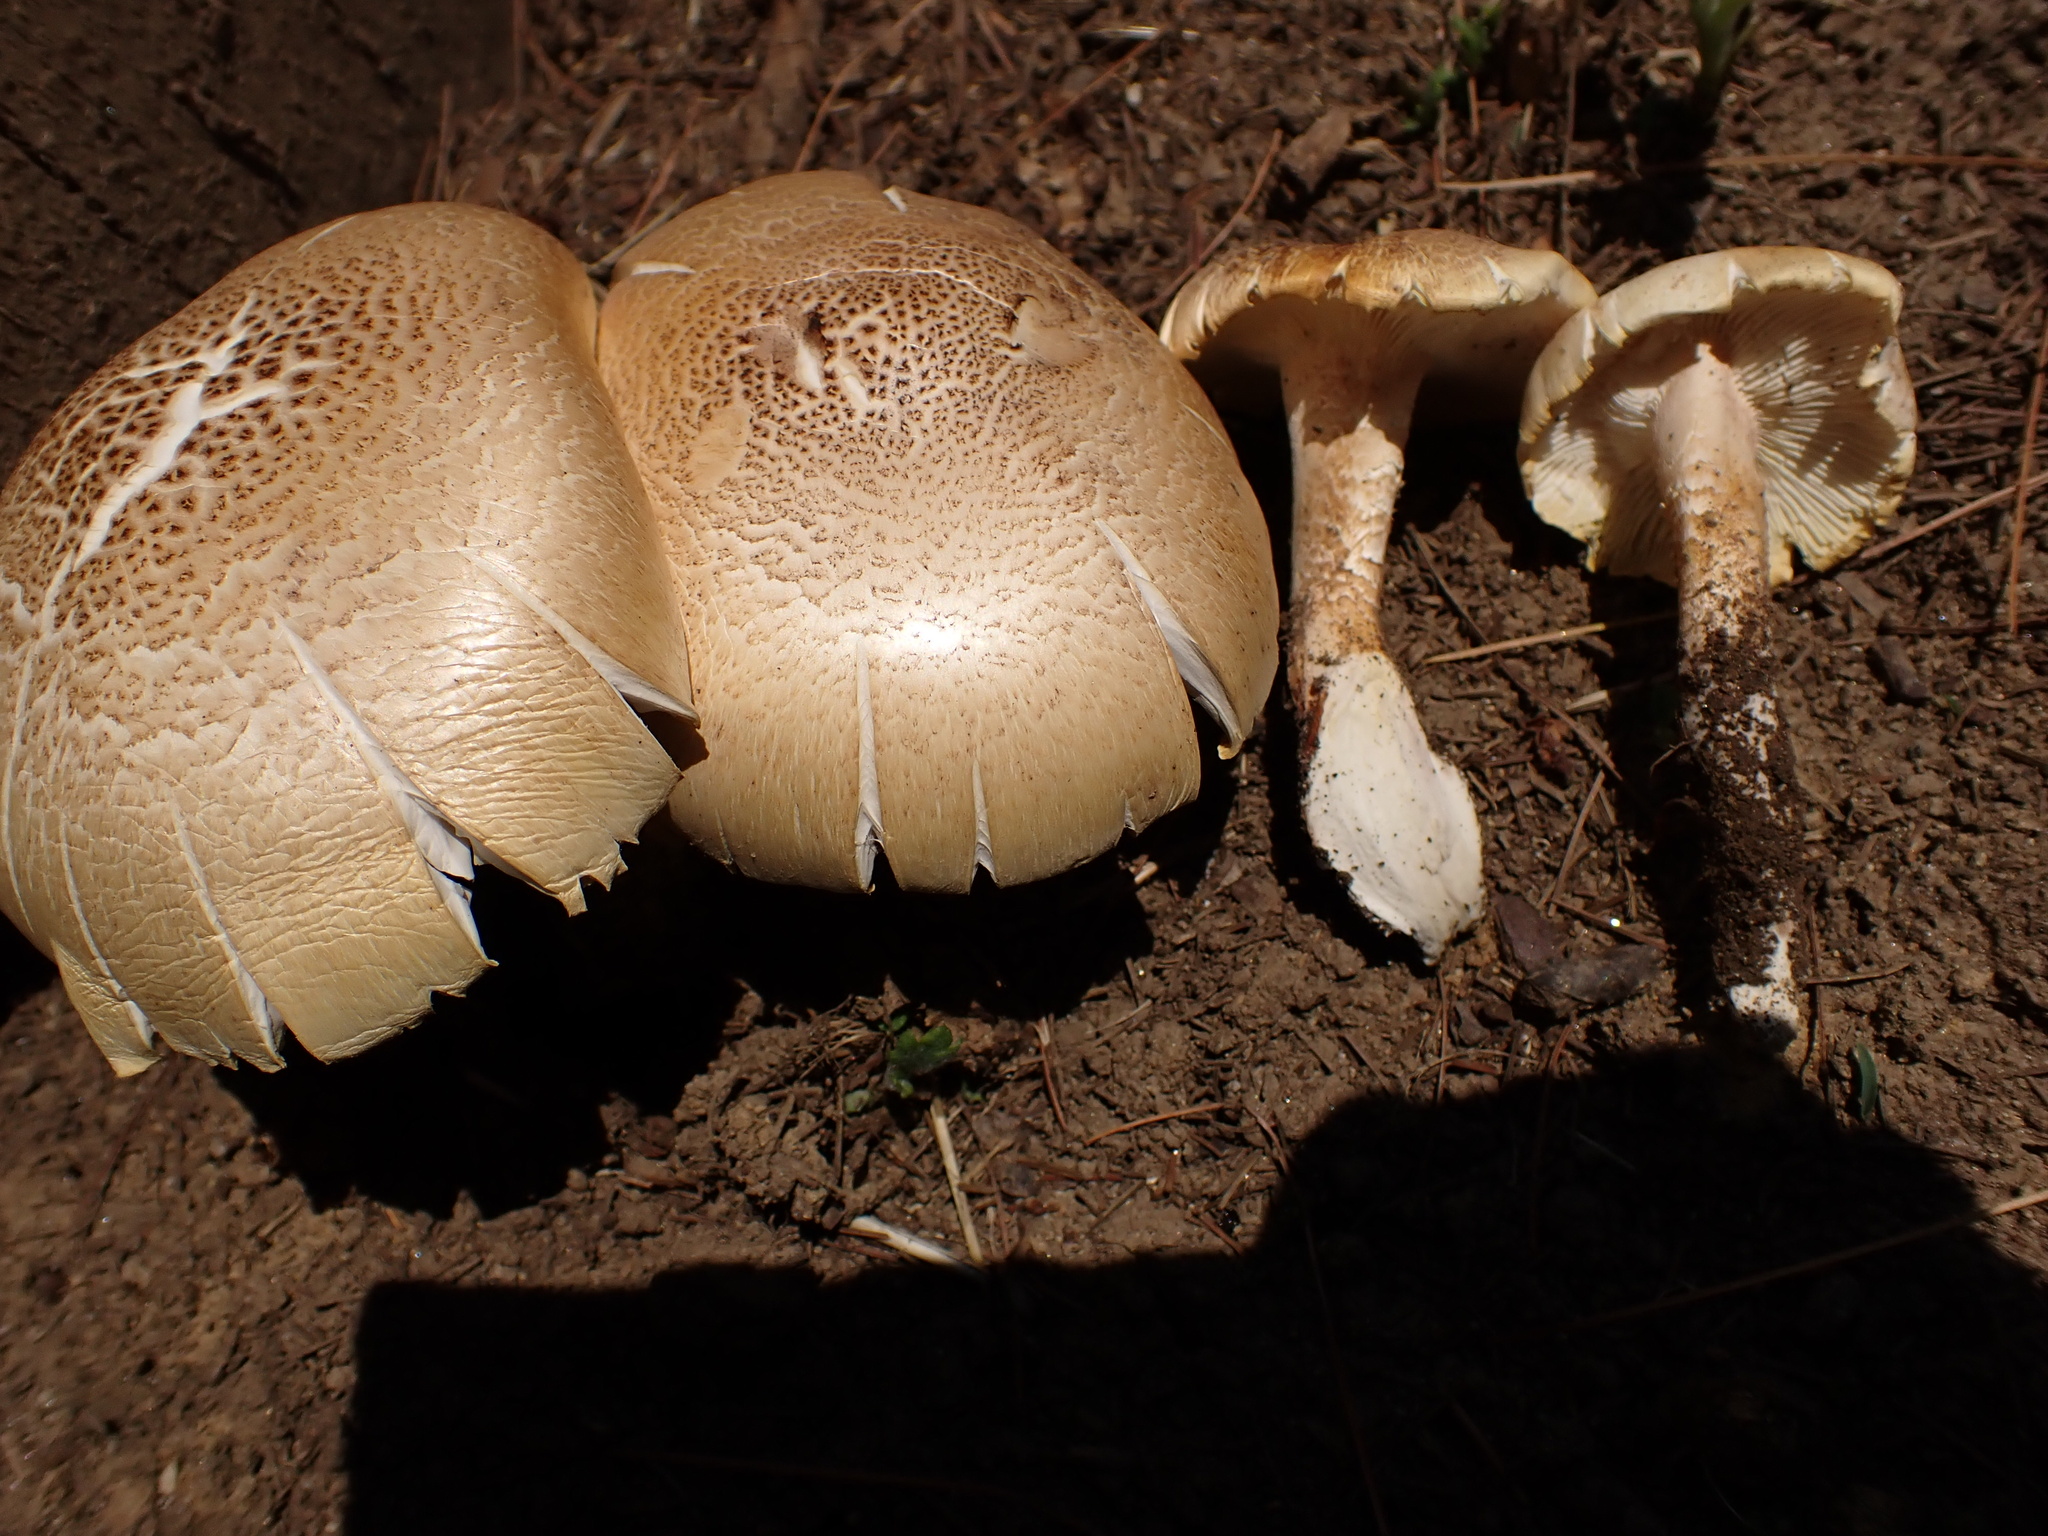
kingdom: Fungi
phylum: Basidiomycota
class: Agaricomycetes
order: Gloeophyllales
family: Gloeophyllaceae
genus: Neolentinus
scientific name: Neolentinus lepideus
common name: Scaly sawgill
